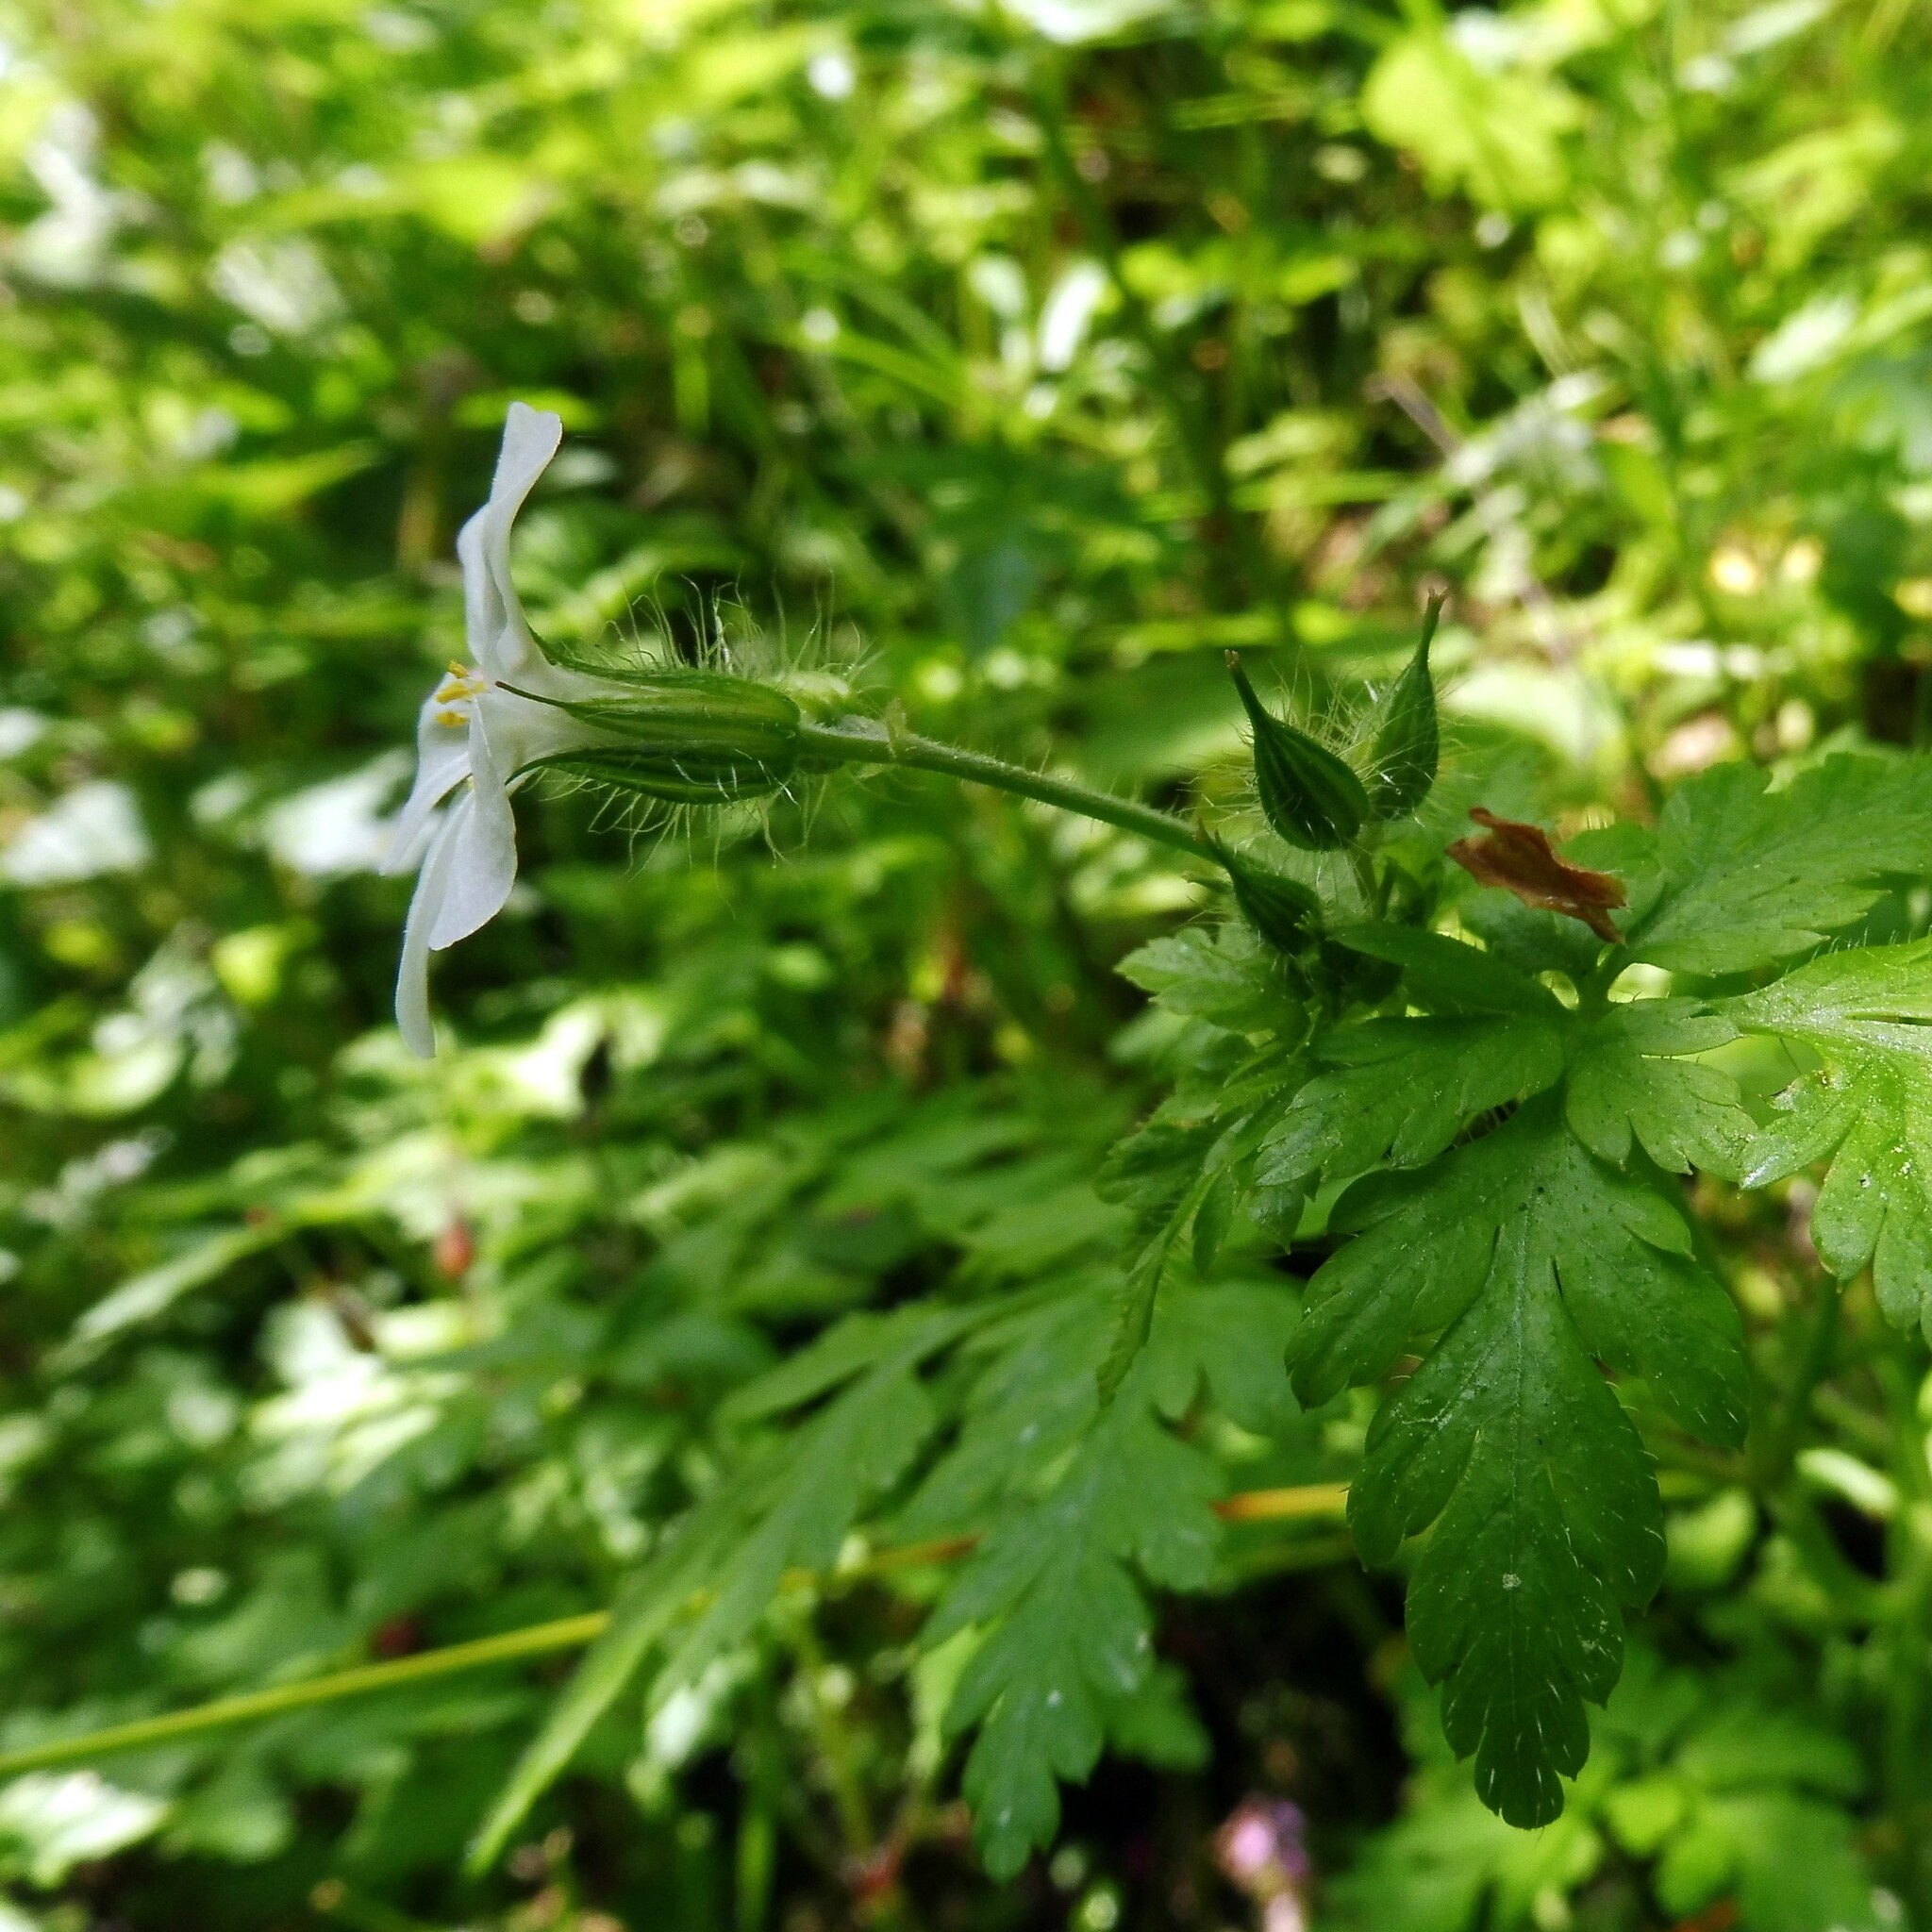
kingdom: Plantae
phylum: Tracheophyta
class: Magnoliopsida
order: Geraniales
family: Geraniaceae
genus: Geranium
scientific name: Geranium robertianum
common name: Herb-robert
